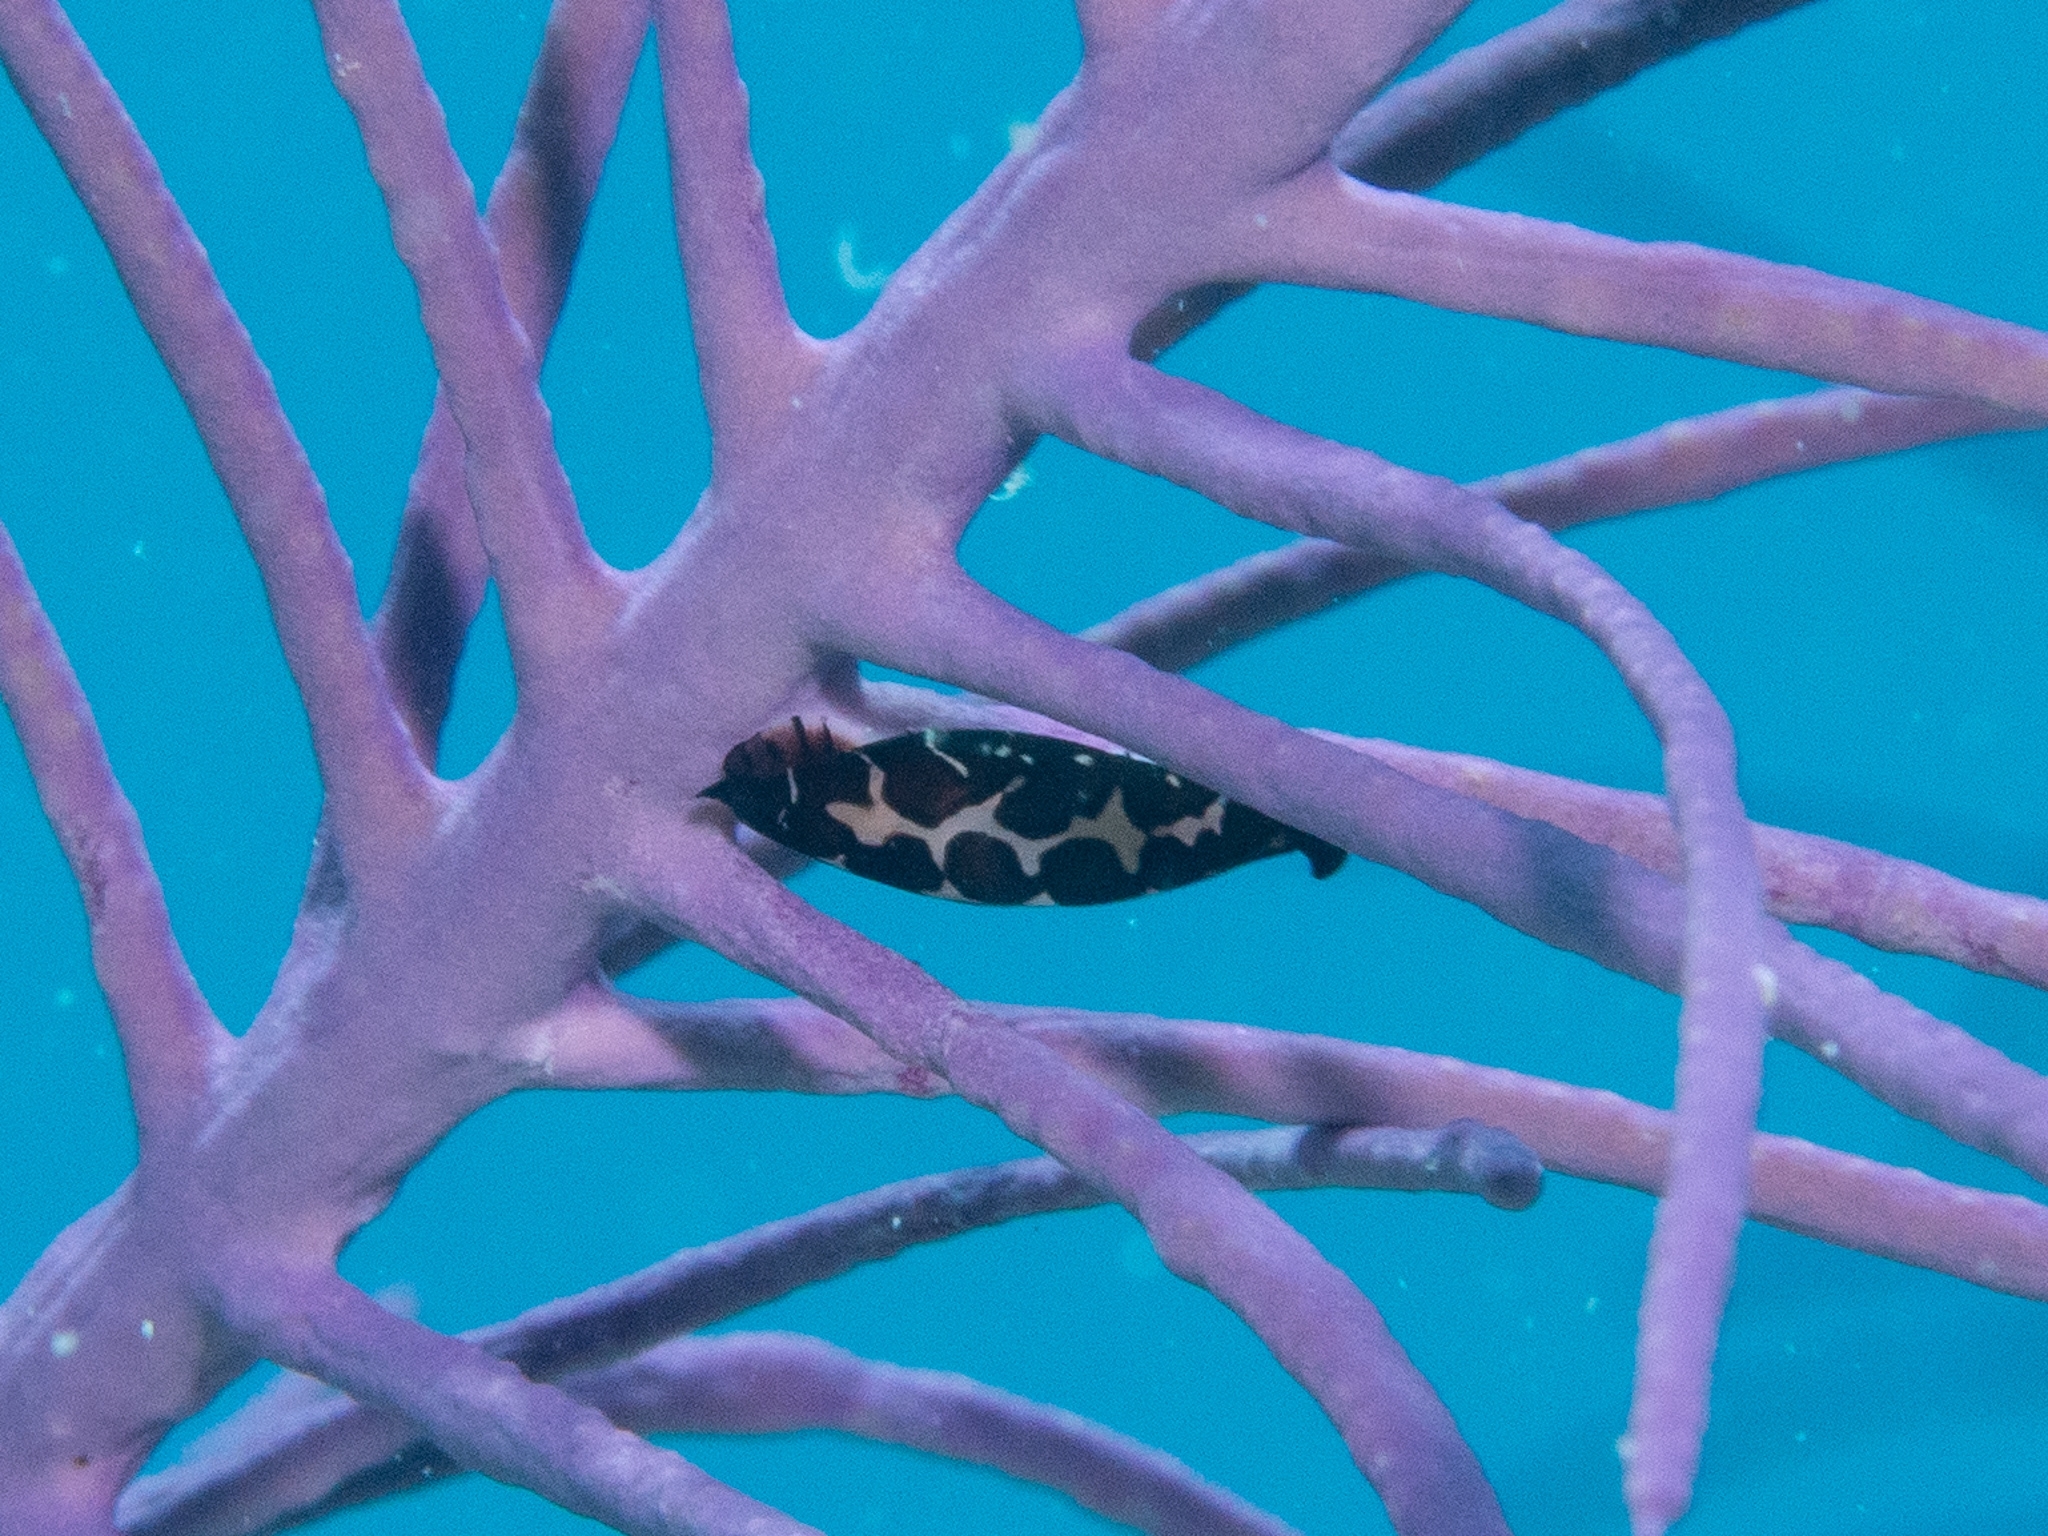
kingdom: Animalia
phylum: Mollusca
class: Gastropoda
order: Littorinimorpha
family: Ovulidae
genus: Cyphoma
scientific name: Cyphoma cassidyae
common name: Black morph cyphoma
